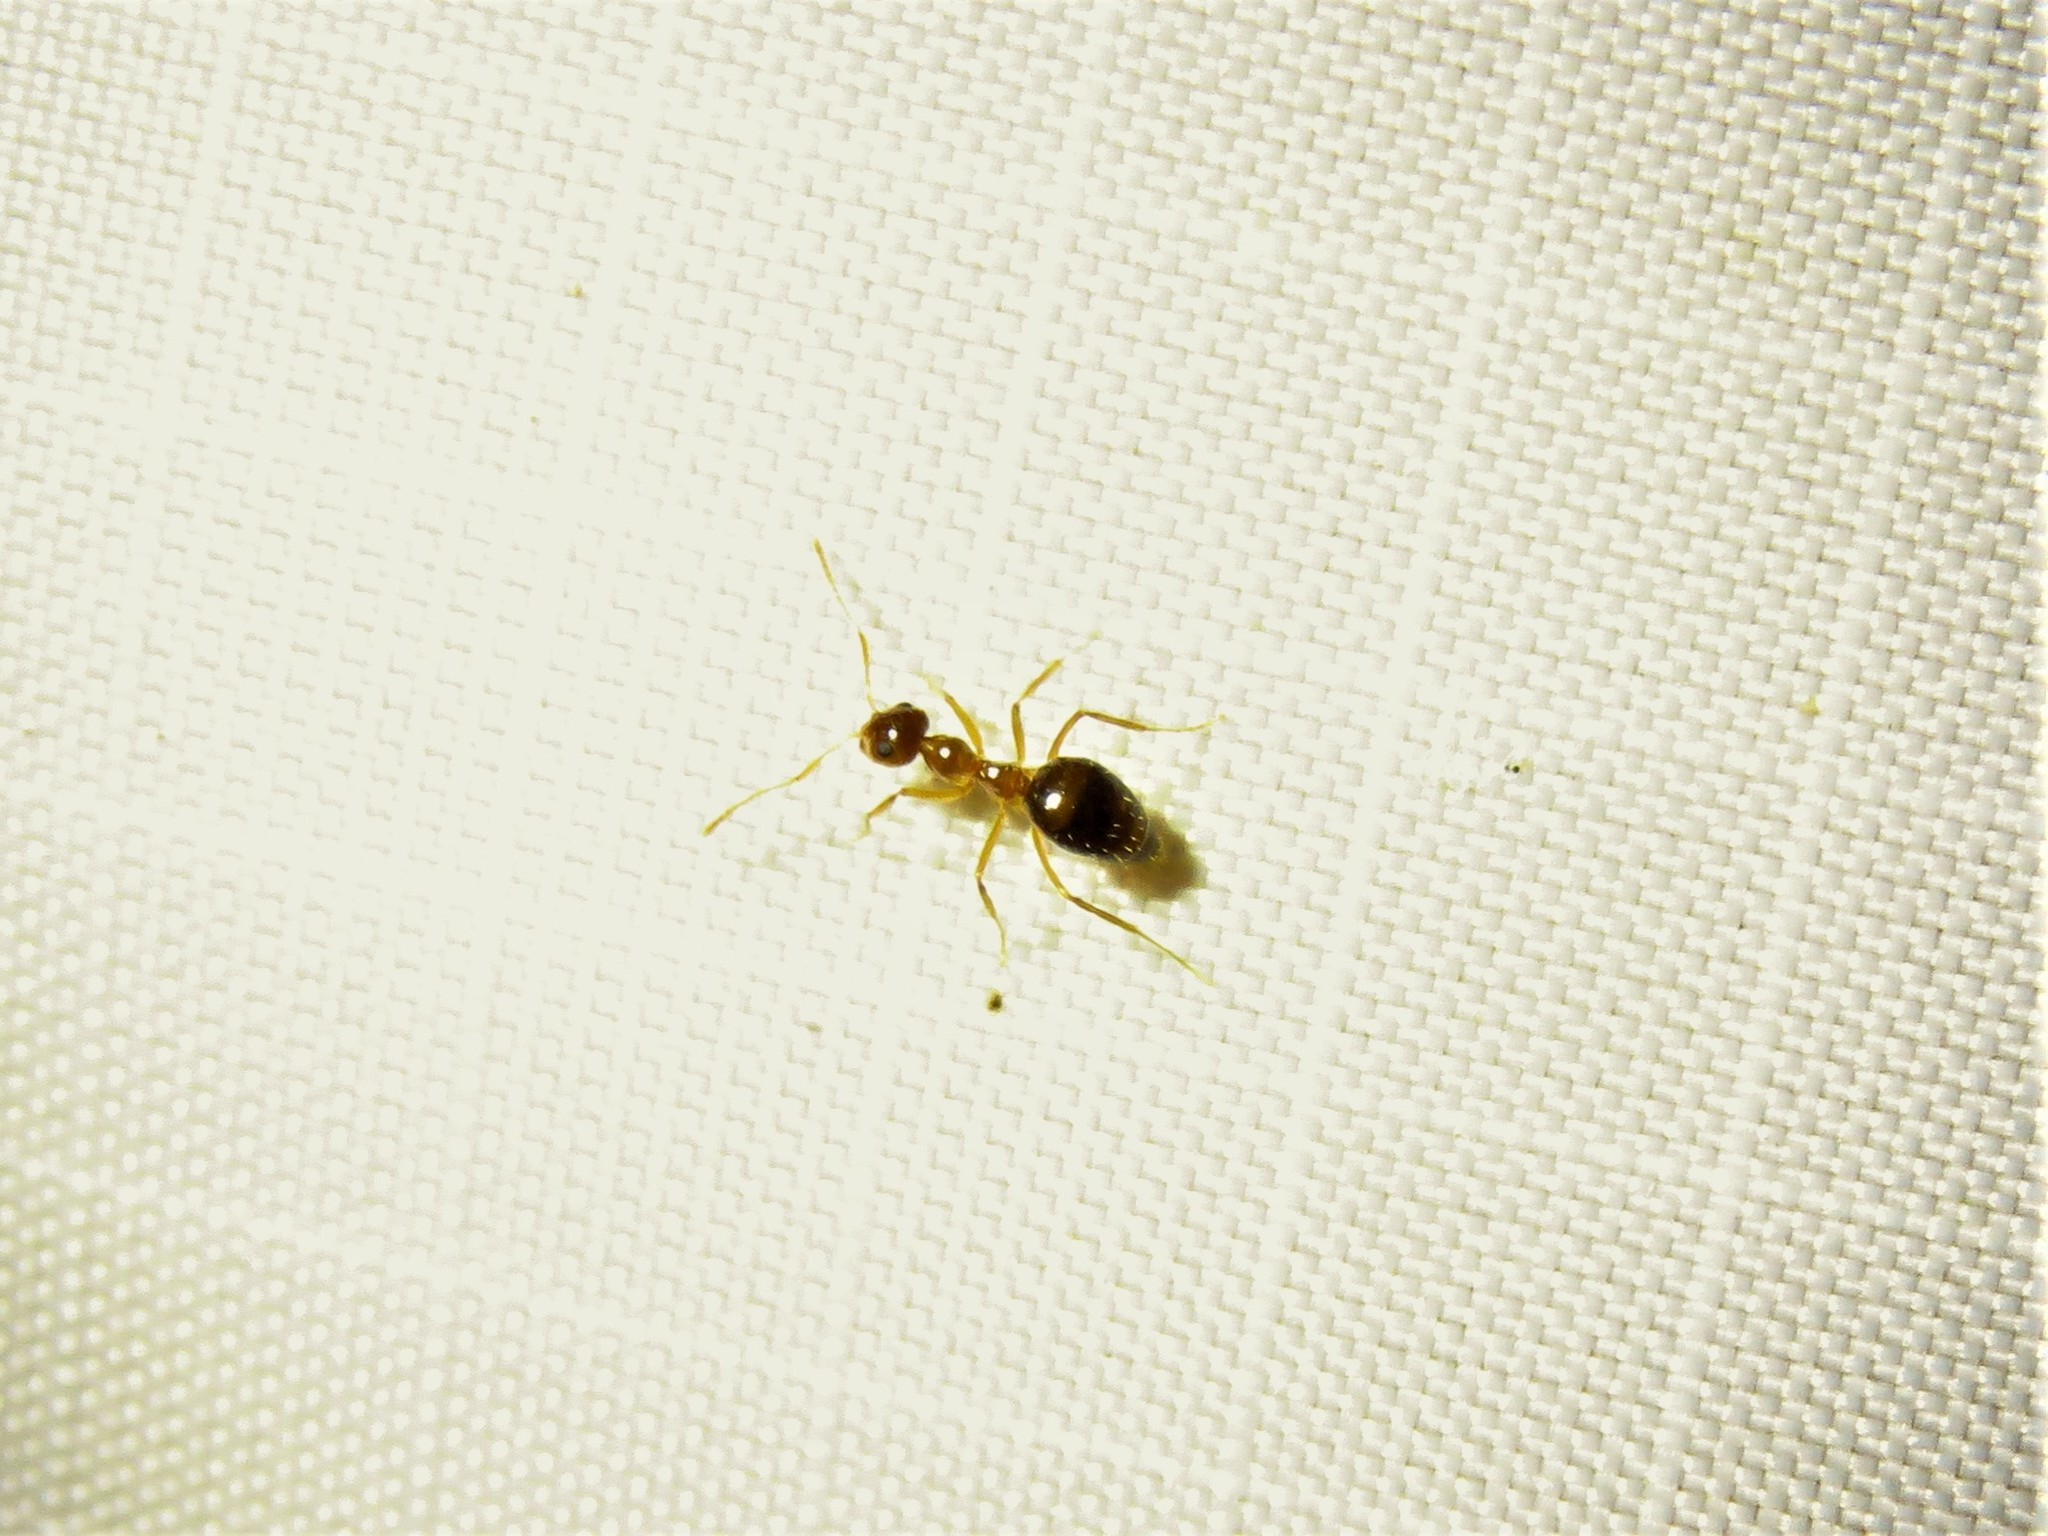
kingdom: Animalia
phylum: Arthropoda
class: Insecta
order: Hymenoptera
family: Formicidae
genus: Prenolepis
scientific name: Prenolepis imparis
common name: Small honey ant
